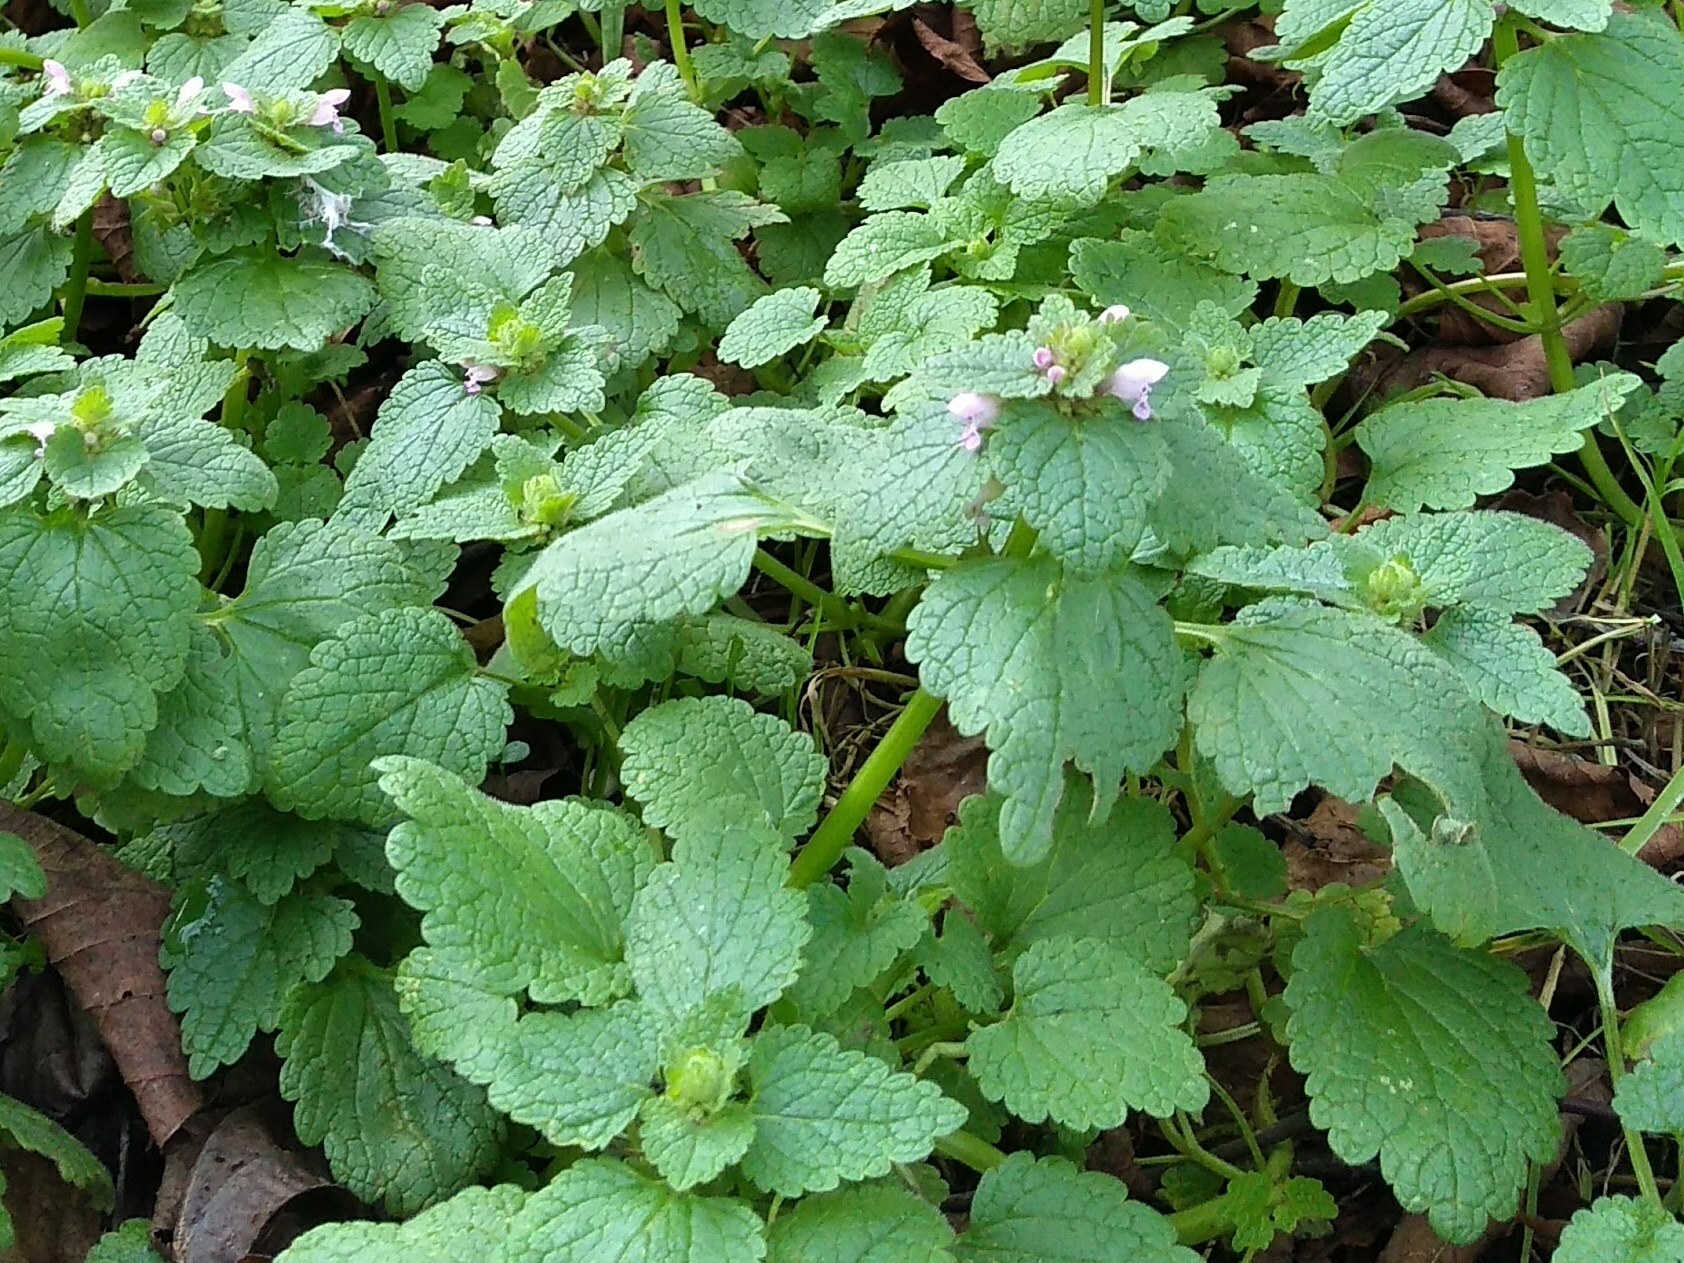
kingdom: Plantae
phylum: Tracheophyta
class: Magnoliopsida
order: Lamiales
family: Lamiaceae
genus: Lamium
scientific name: Lamium purpureum
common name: Red dead-nettle
